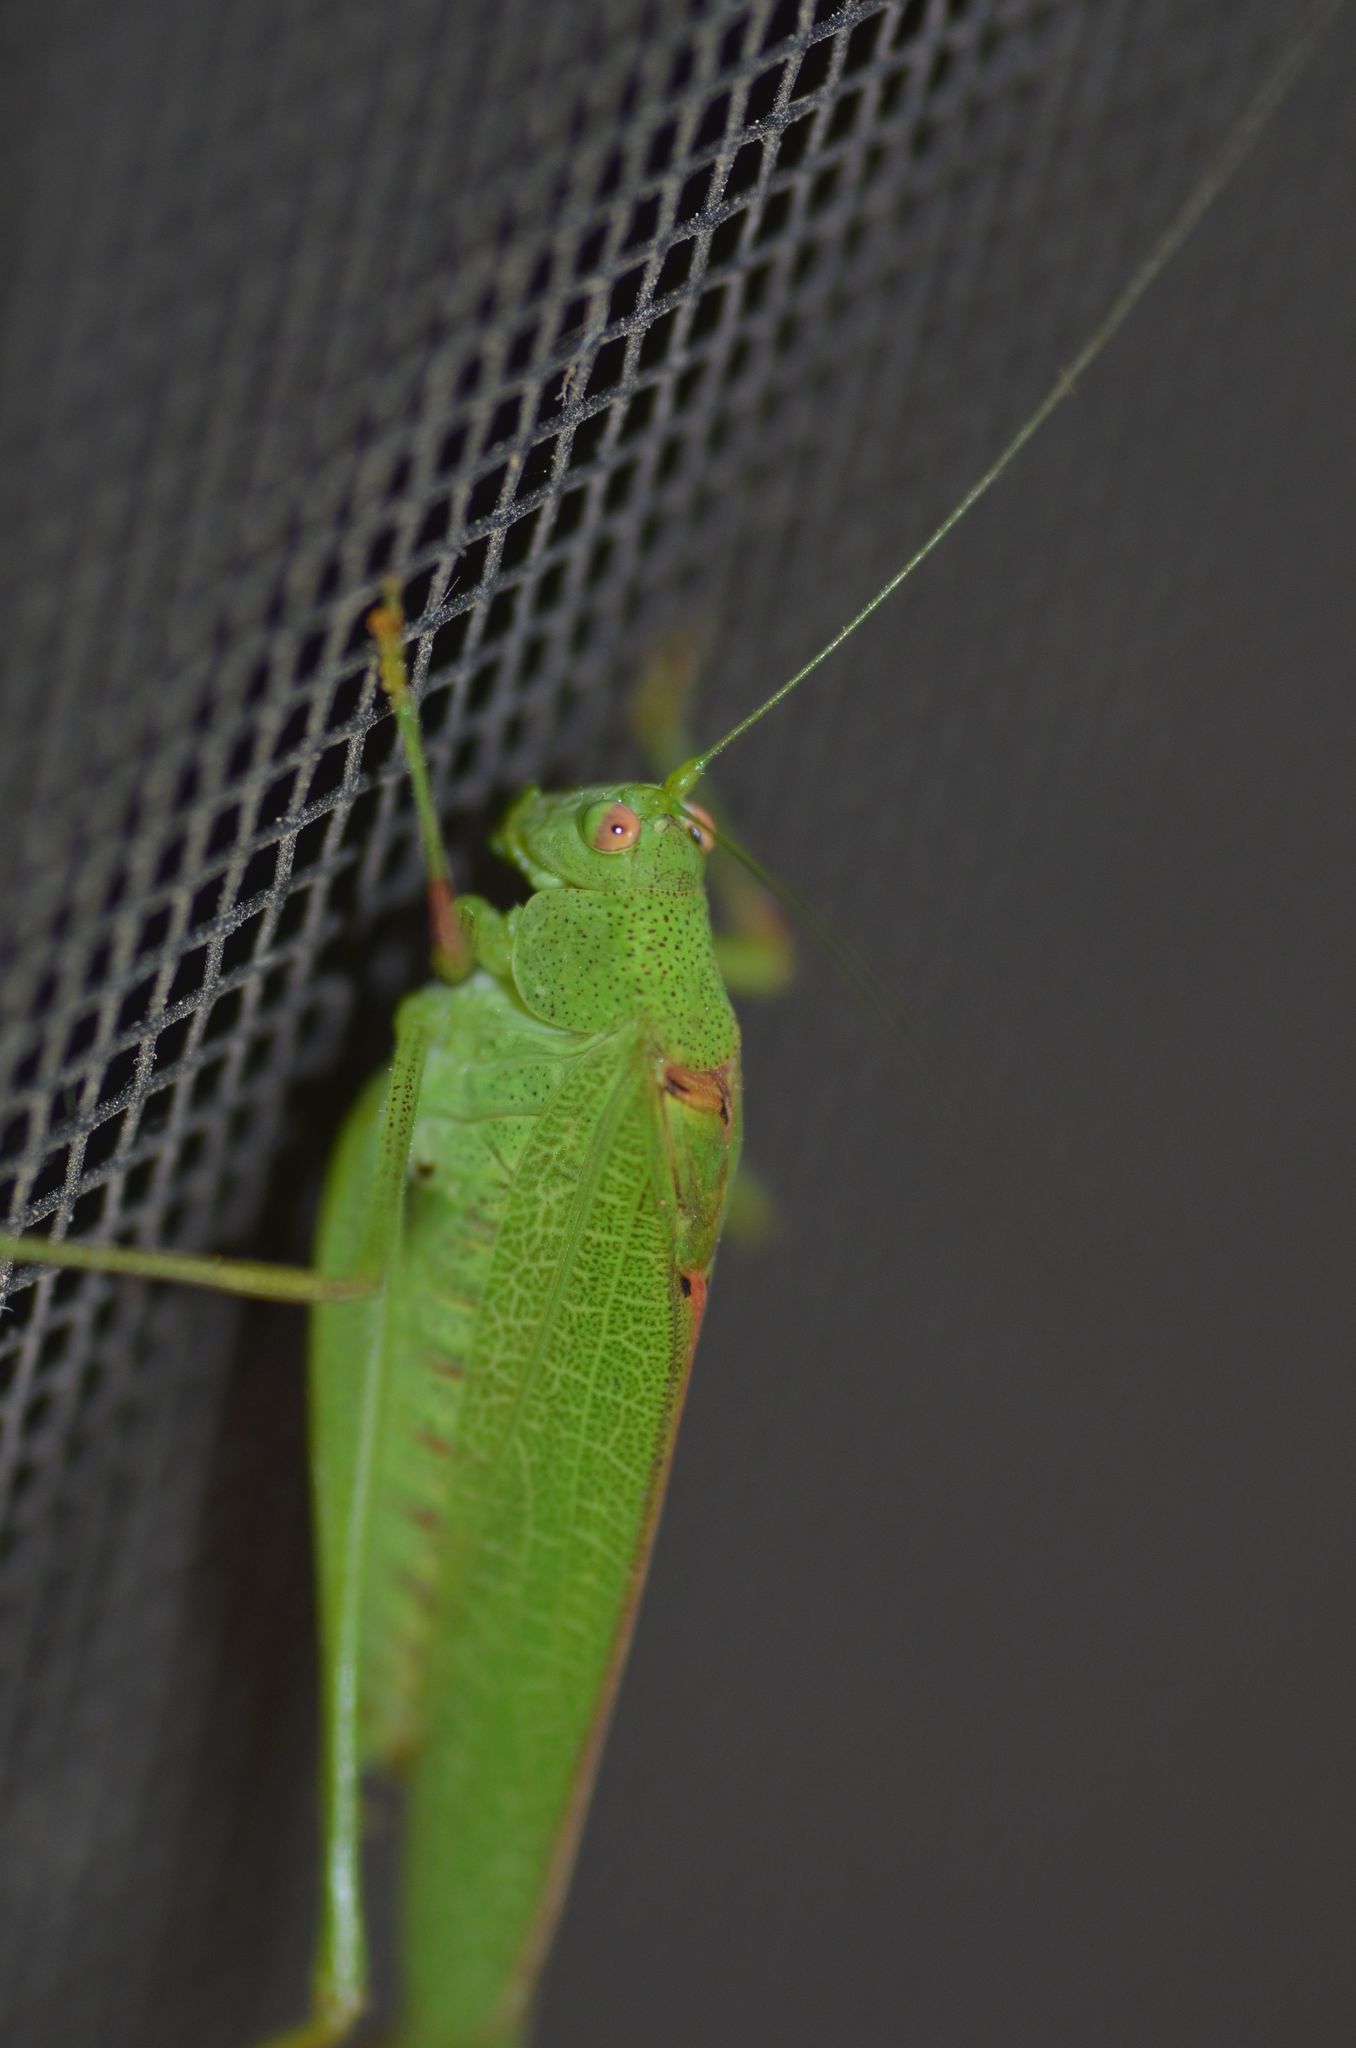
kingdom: Animalia
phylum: Arthropoda
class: Insecta
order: Orthoptera
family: Tettigoniidae
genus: Phaneroptera
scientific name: Phaneroptera nana
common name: Southern sickle bush-cricket
